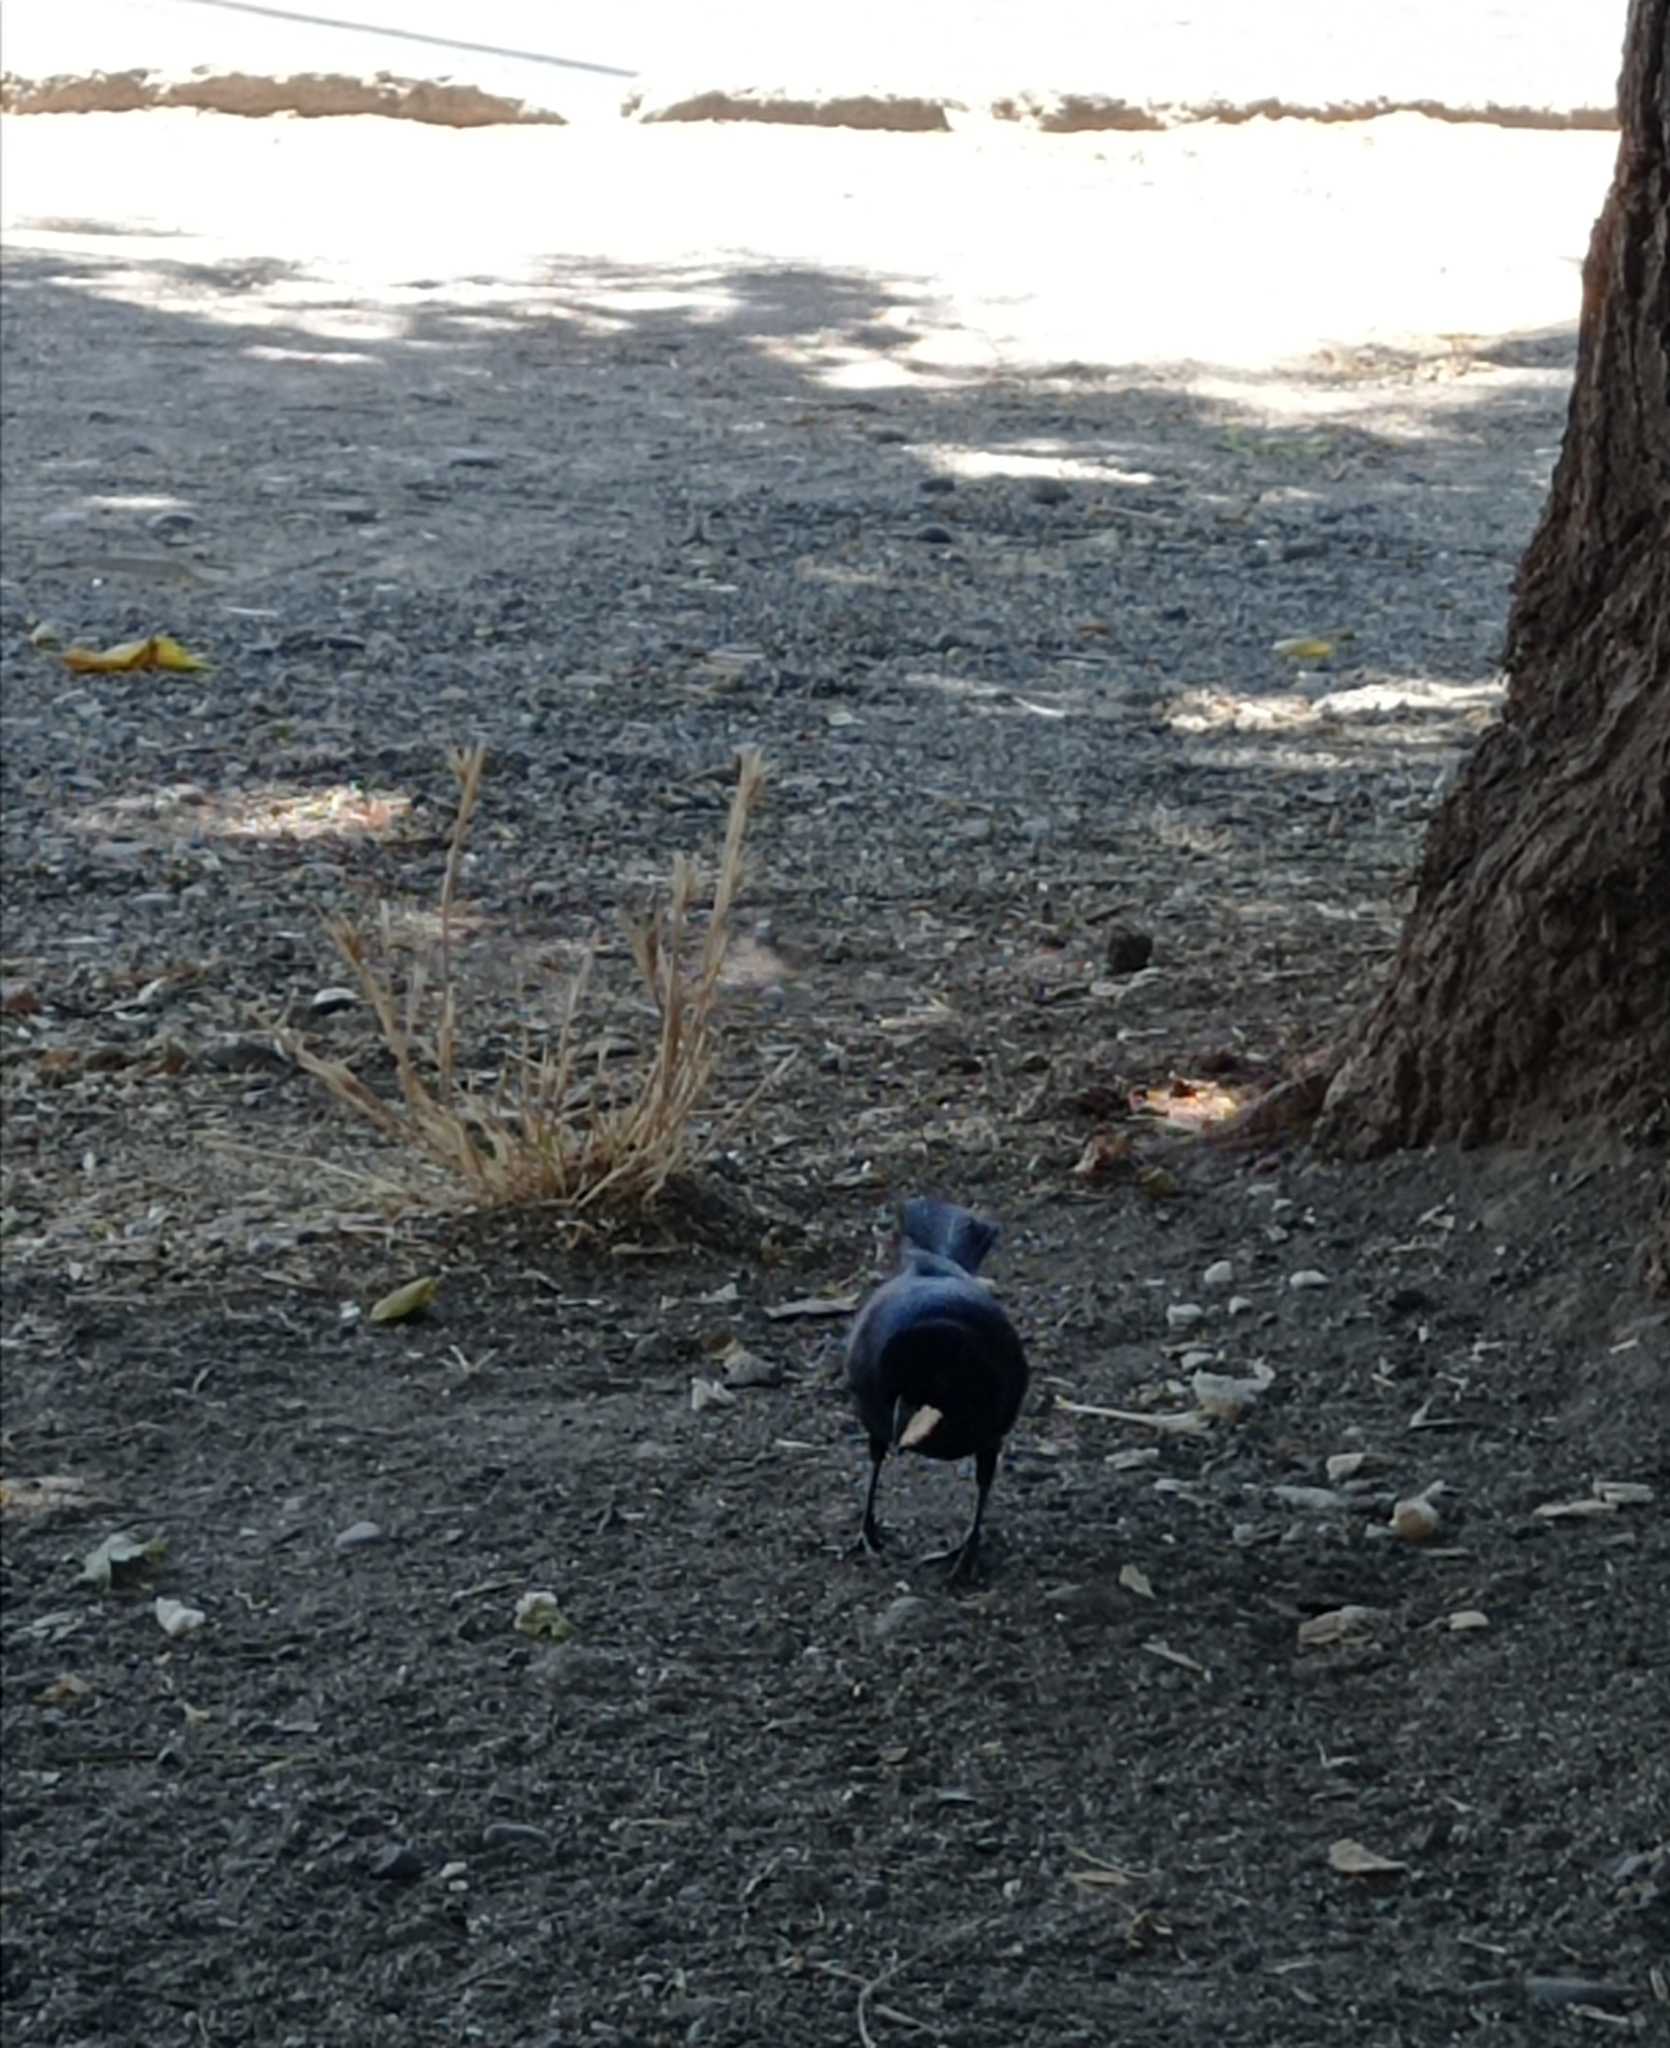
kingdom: Animalia
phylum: Chordata
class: Aves
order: Passeriformes
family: Icteridae
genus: Molothrus
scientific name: Molothrus bonariensis
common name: Shiny cowbird
